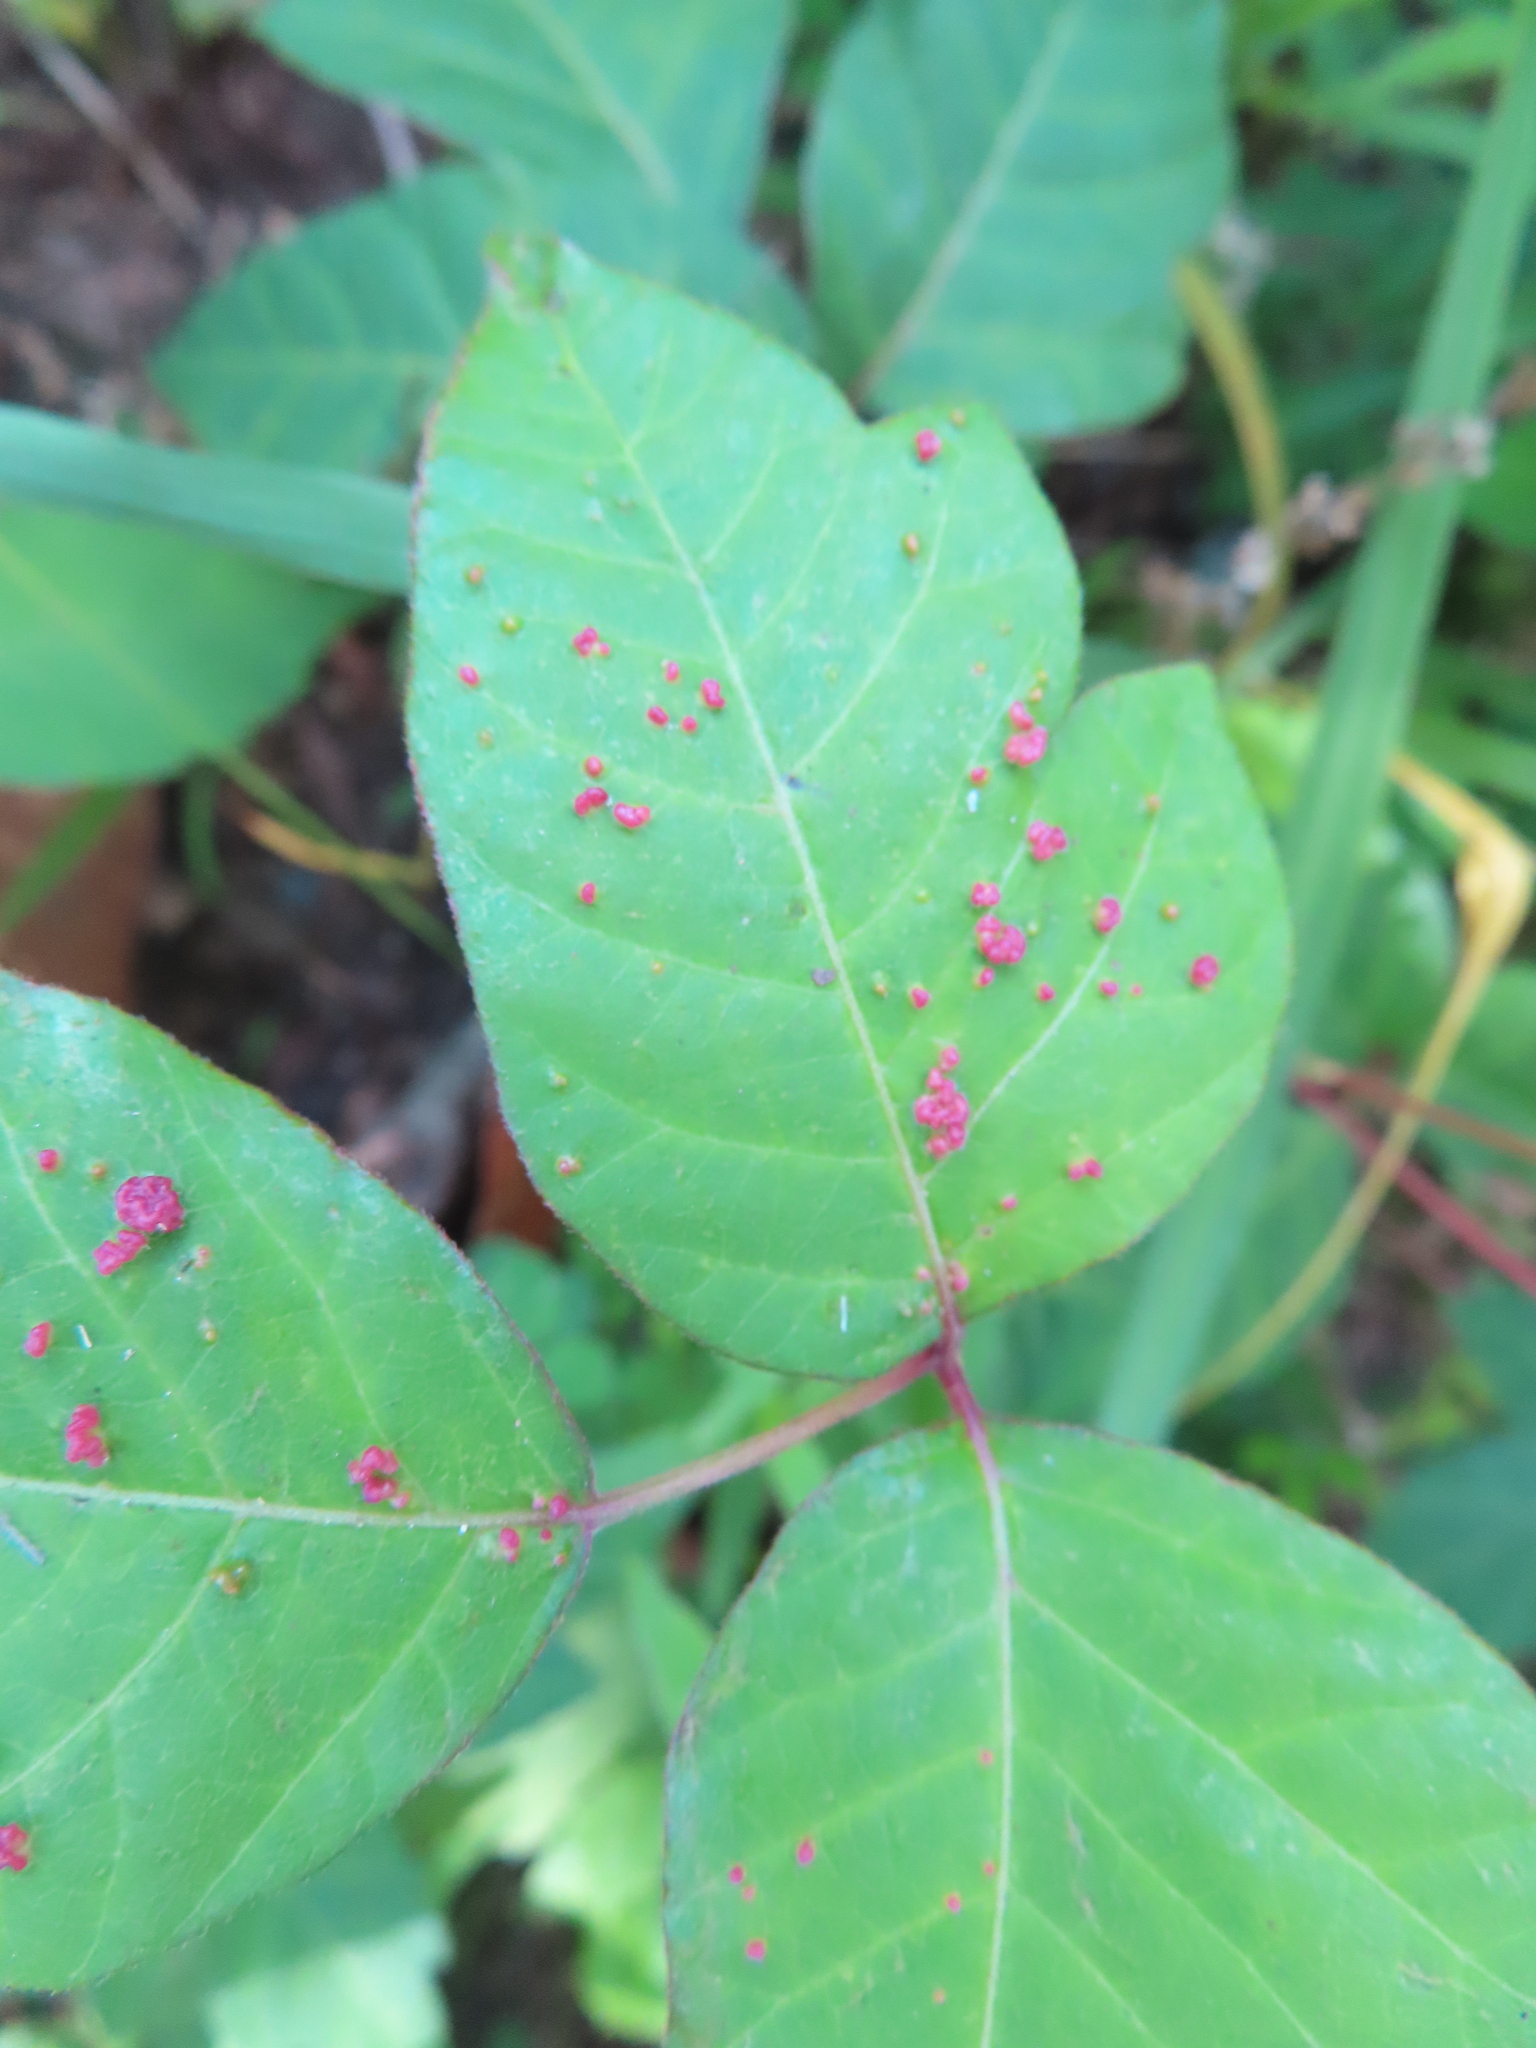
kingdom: Animalia
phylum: Arthropoda
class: Arachnida
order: Trombidiformes
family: Eriophyidae
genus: Aculops
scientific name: Aculops
